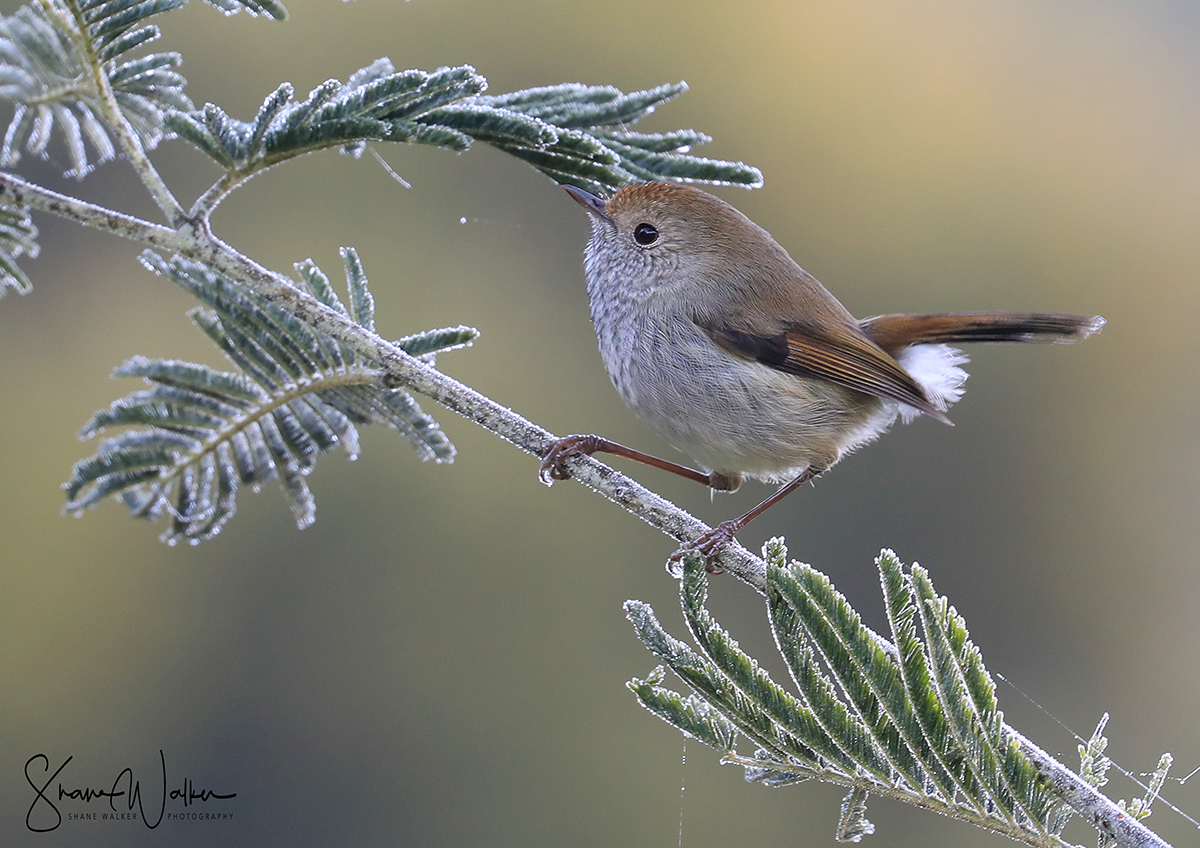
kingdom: Animalia
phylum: Chordata
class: Aves
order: Passeriformes
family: Acanthizidae
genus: Acanthiza
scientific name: Acanthiza ewingii
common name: Tasmanian thornbill
